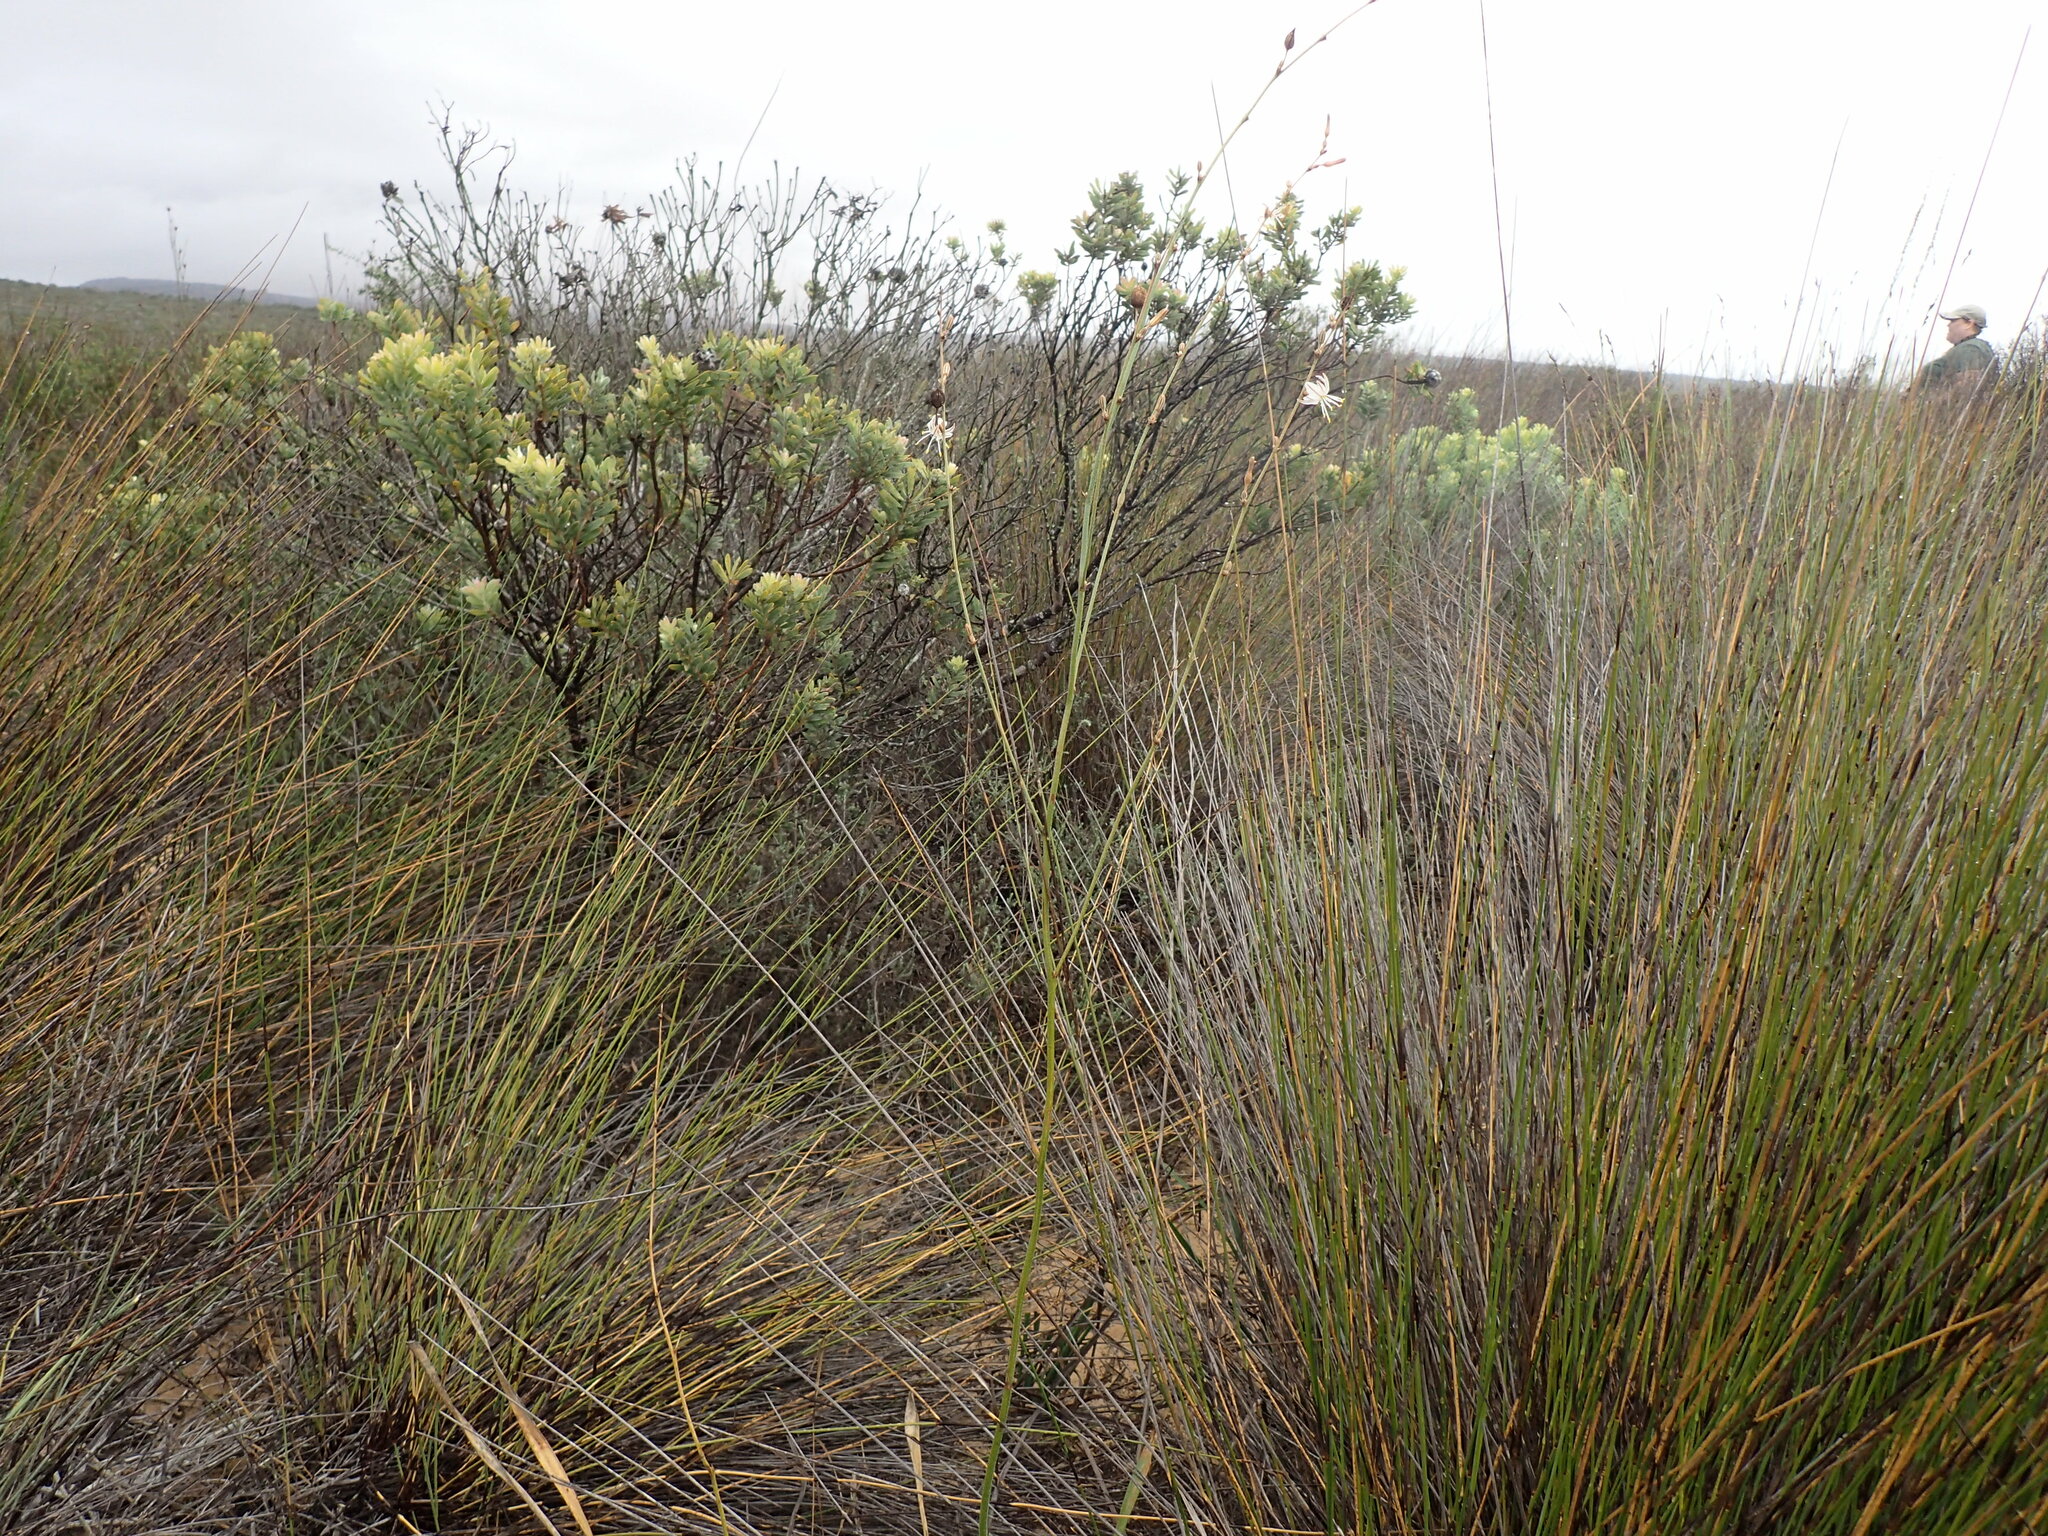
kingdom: Plantae
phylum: Tracheophyta
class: Liliopsida
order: Asparagales
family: Asparagaceae
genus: Chlorophytum
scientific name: Chlorophytum viscosum
